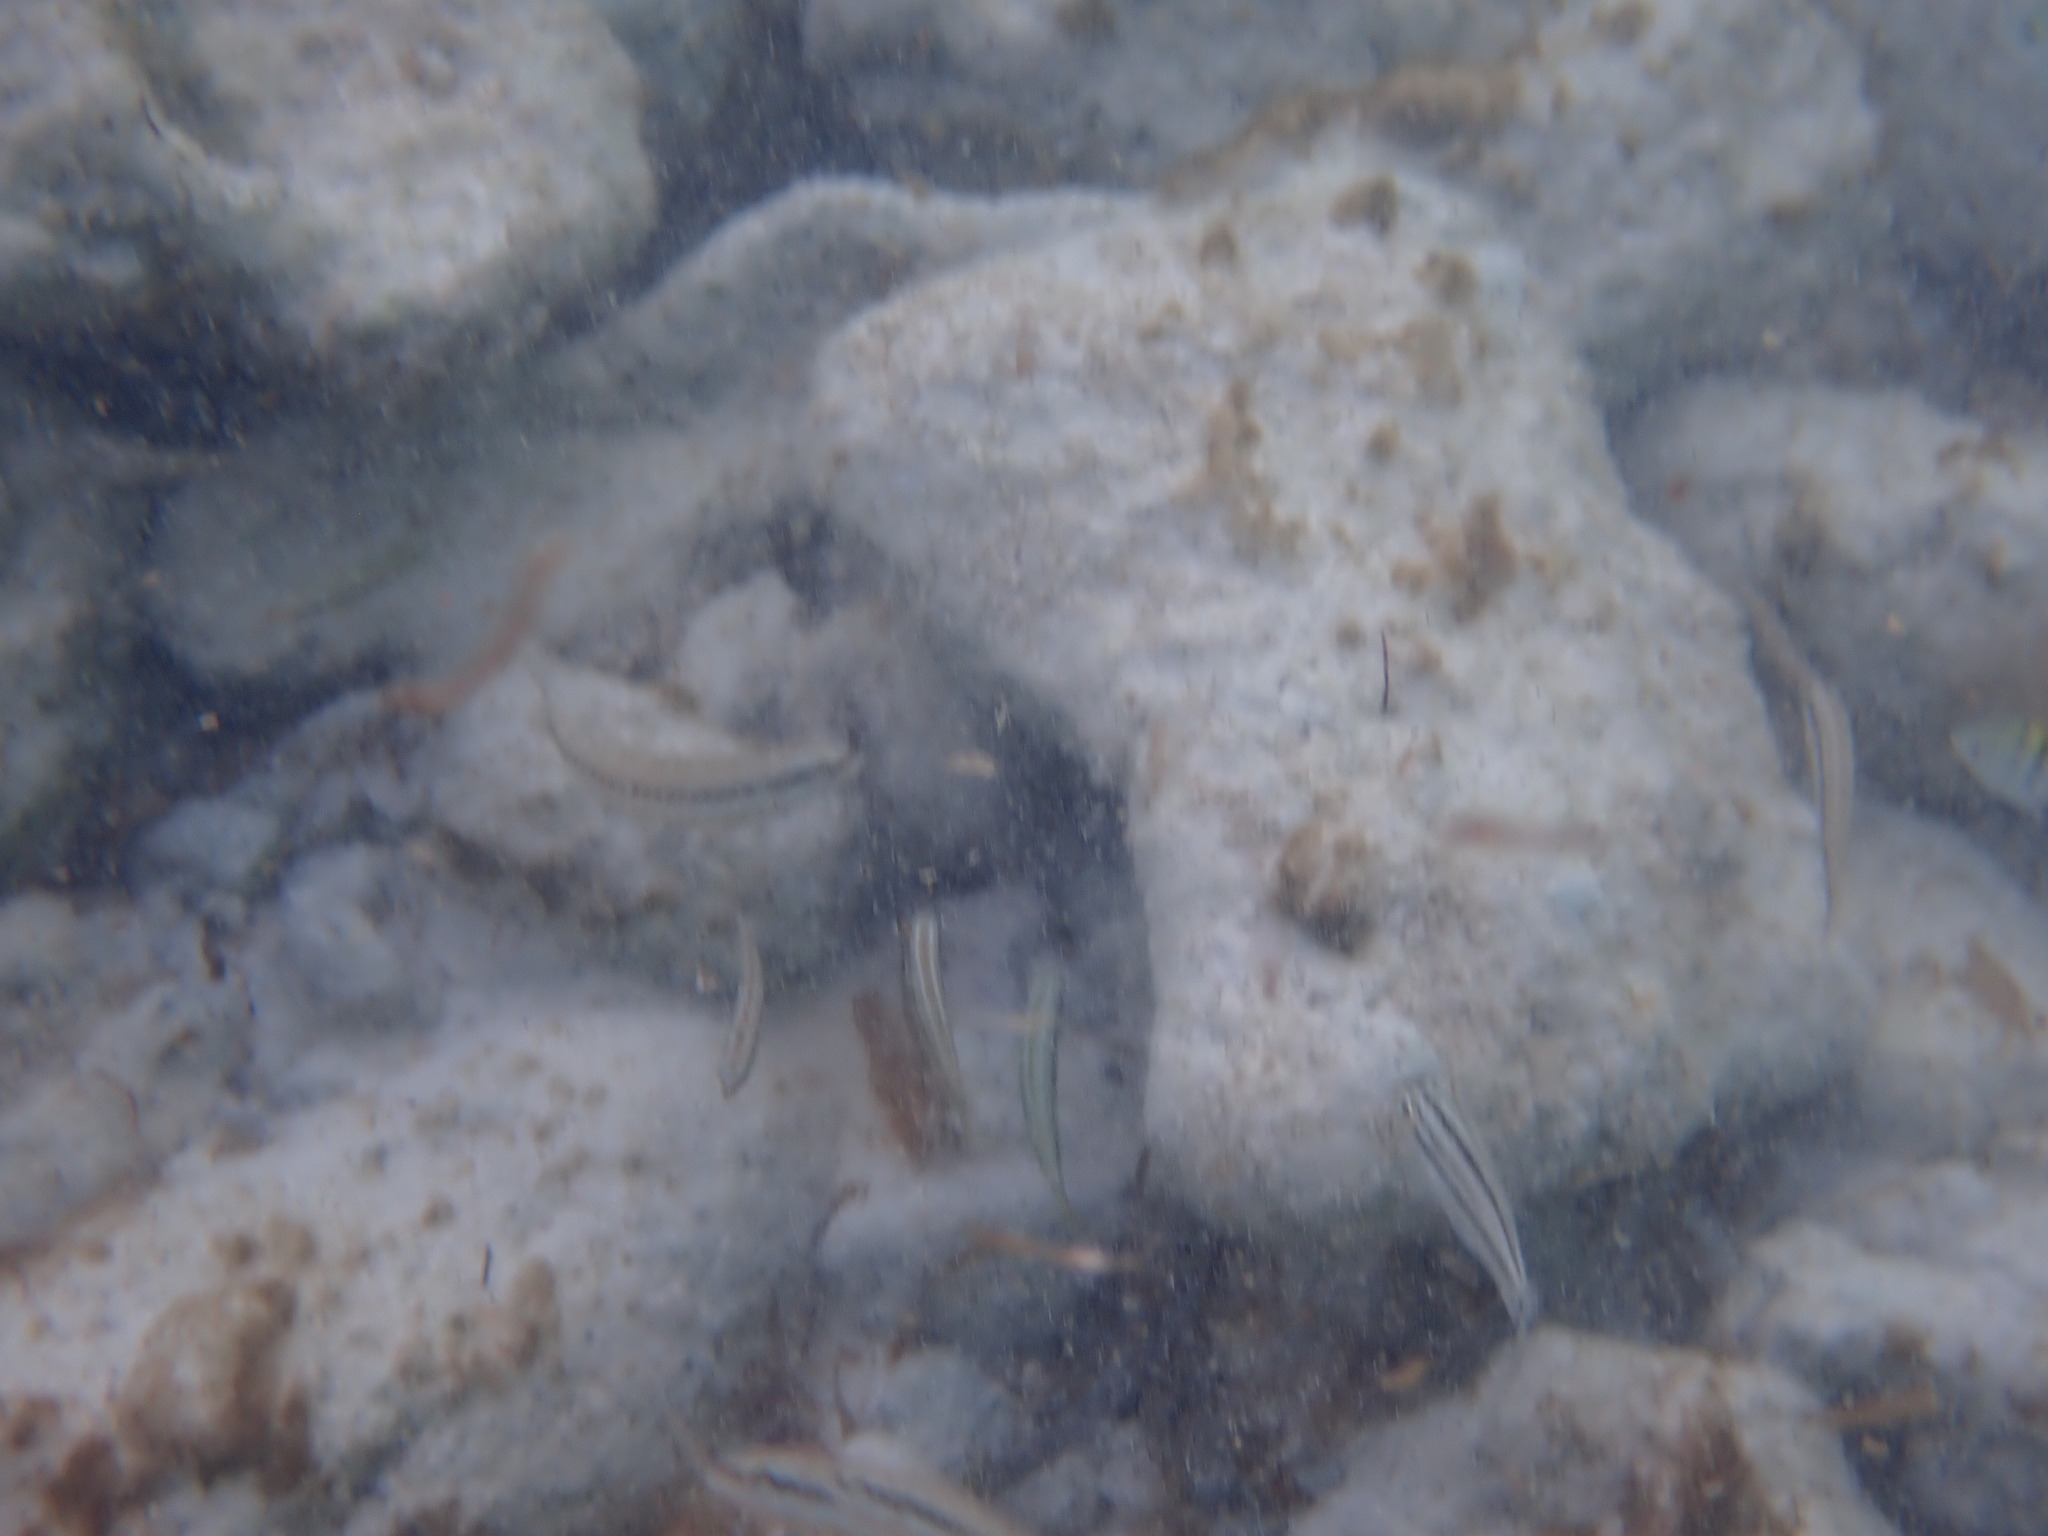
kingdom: Animalia
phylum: Chordata
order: Perciformes
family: Labridae
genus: Halichoeres
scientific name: Halichoeres bivittatus
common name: Slippery dick
